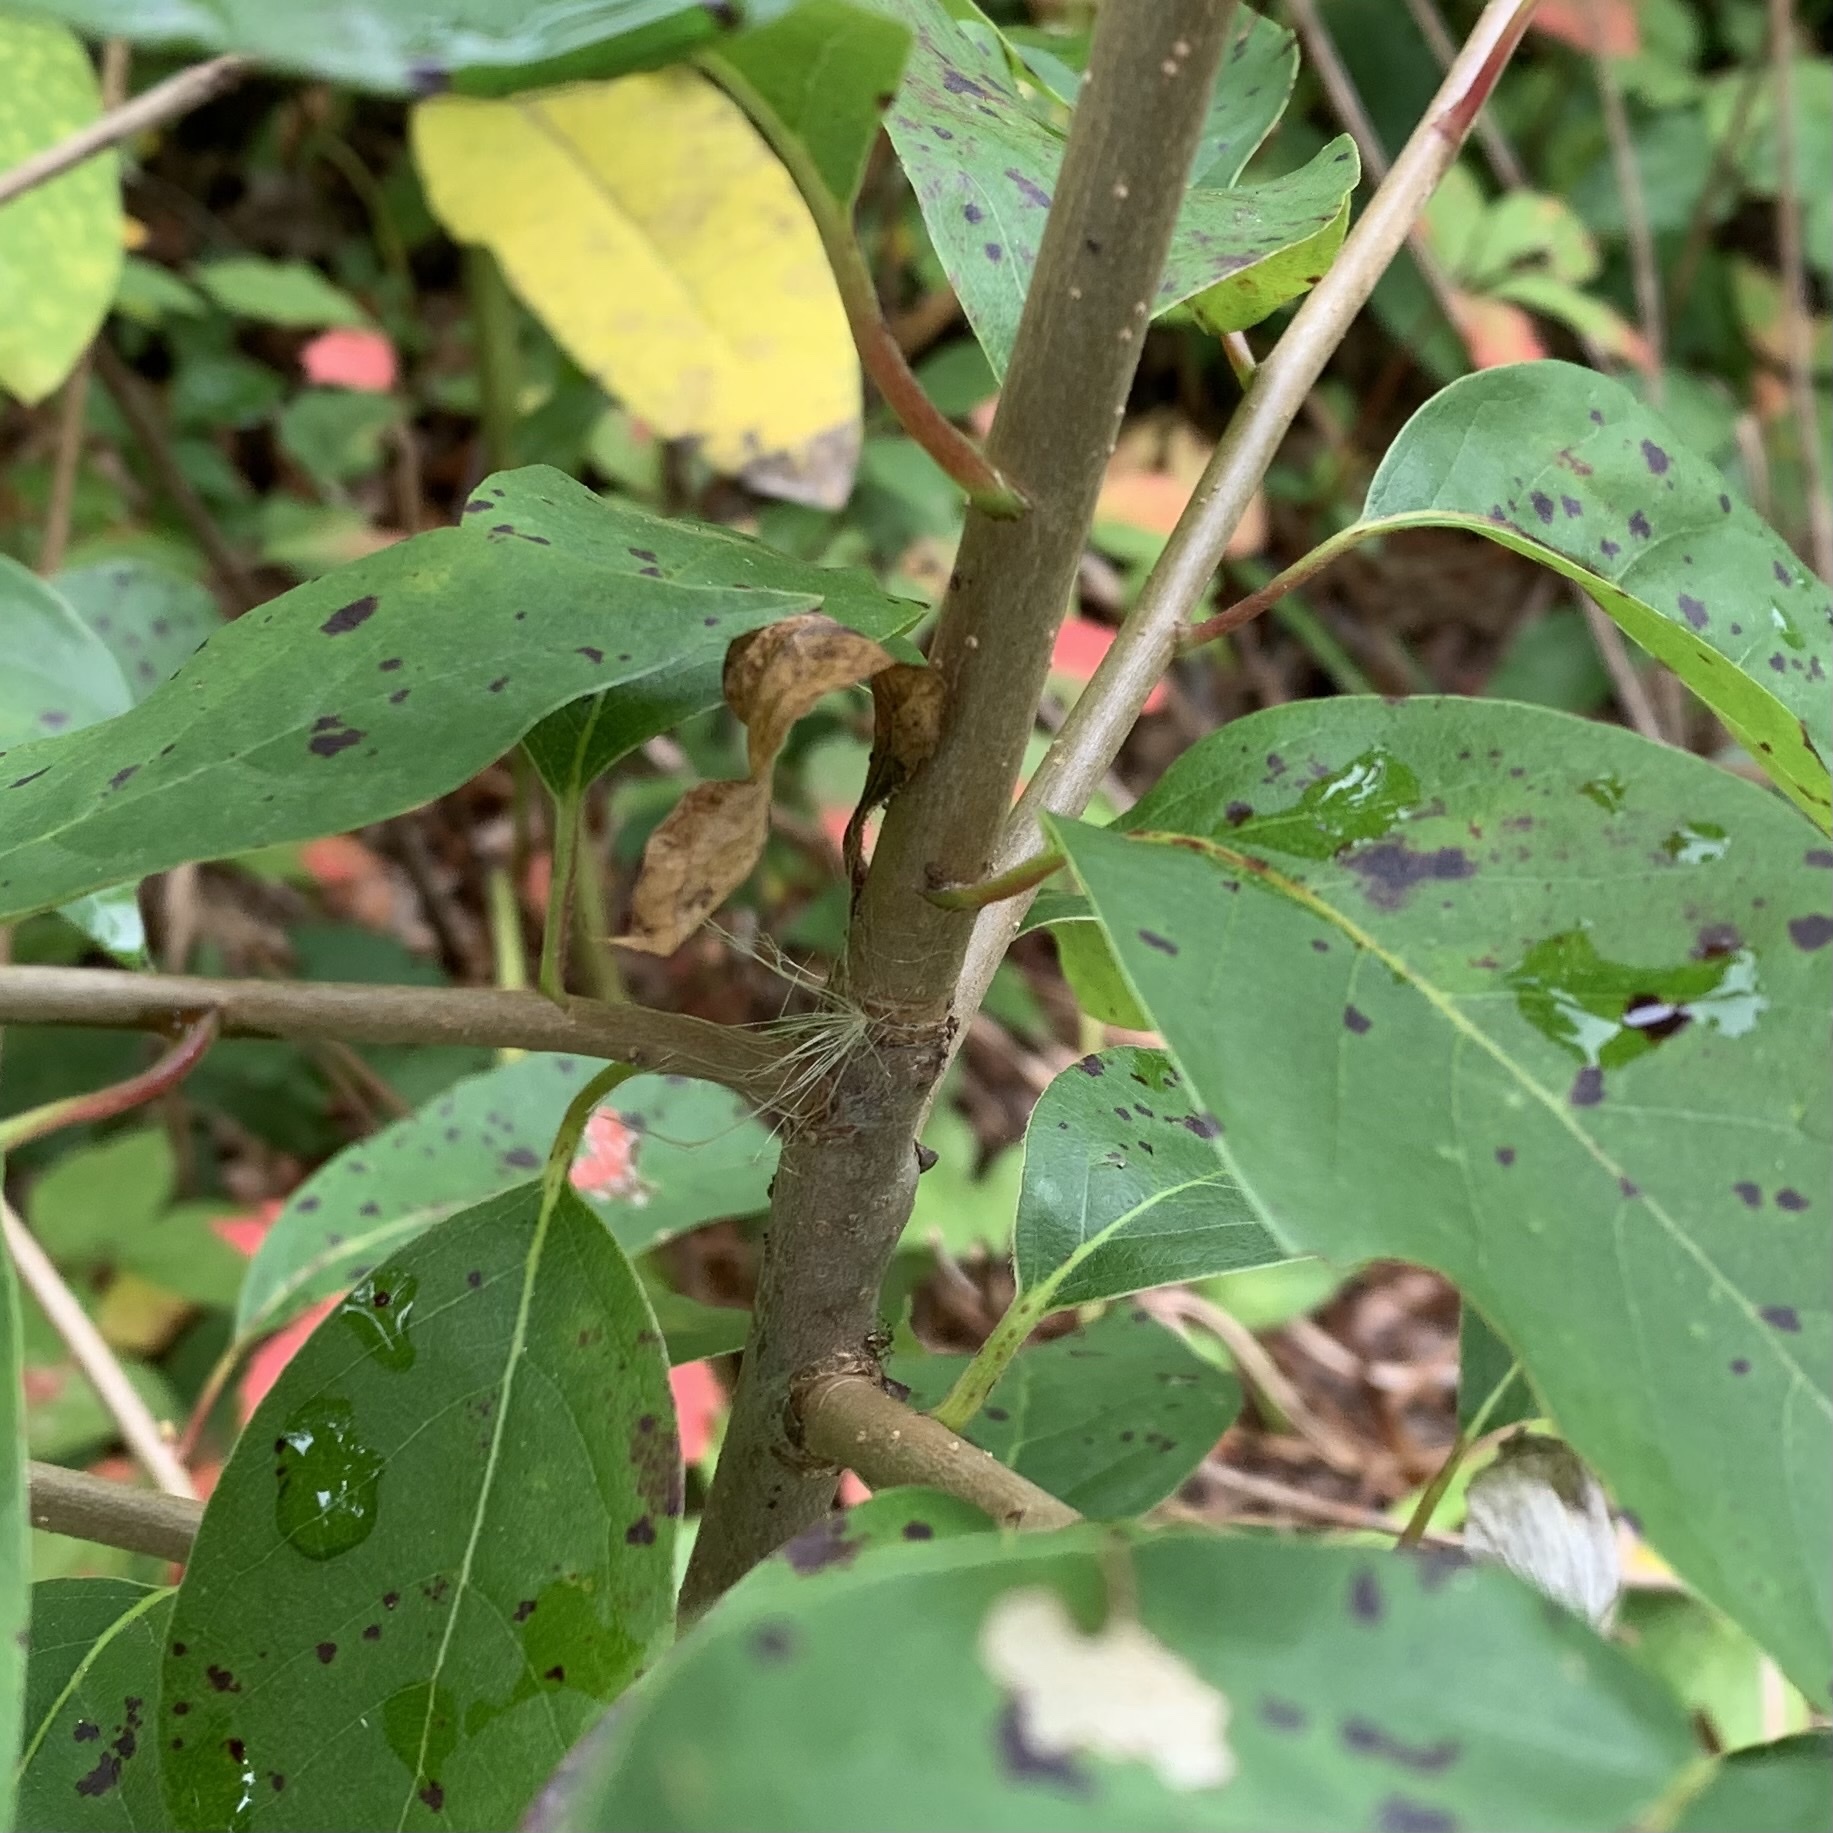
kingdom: Plantae
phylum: Tracheophyta
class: Magnoliopsida
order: Cornales
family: Nyssaceae
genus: Nyssa
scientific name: Nyssa sylvatica
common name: Black tupelo
